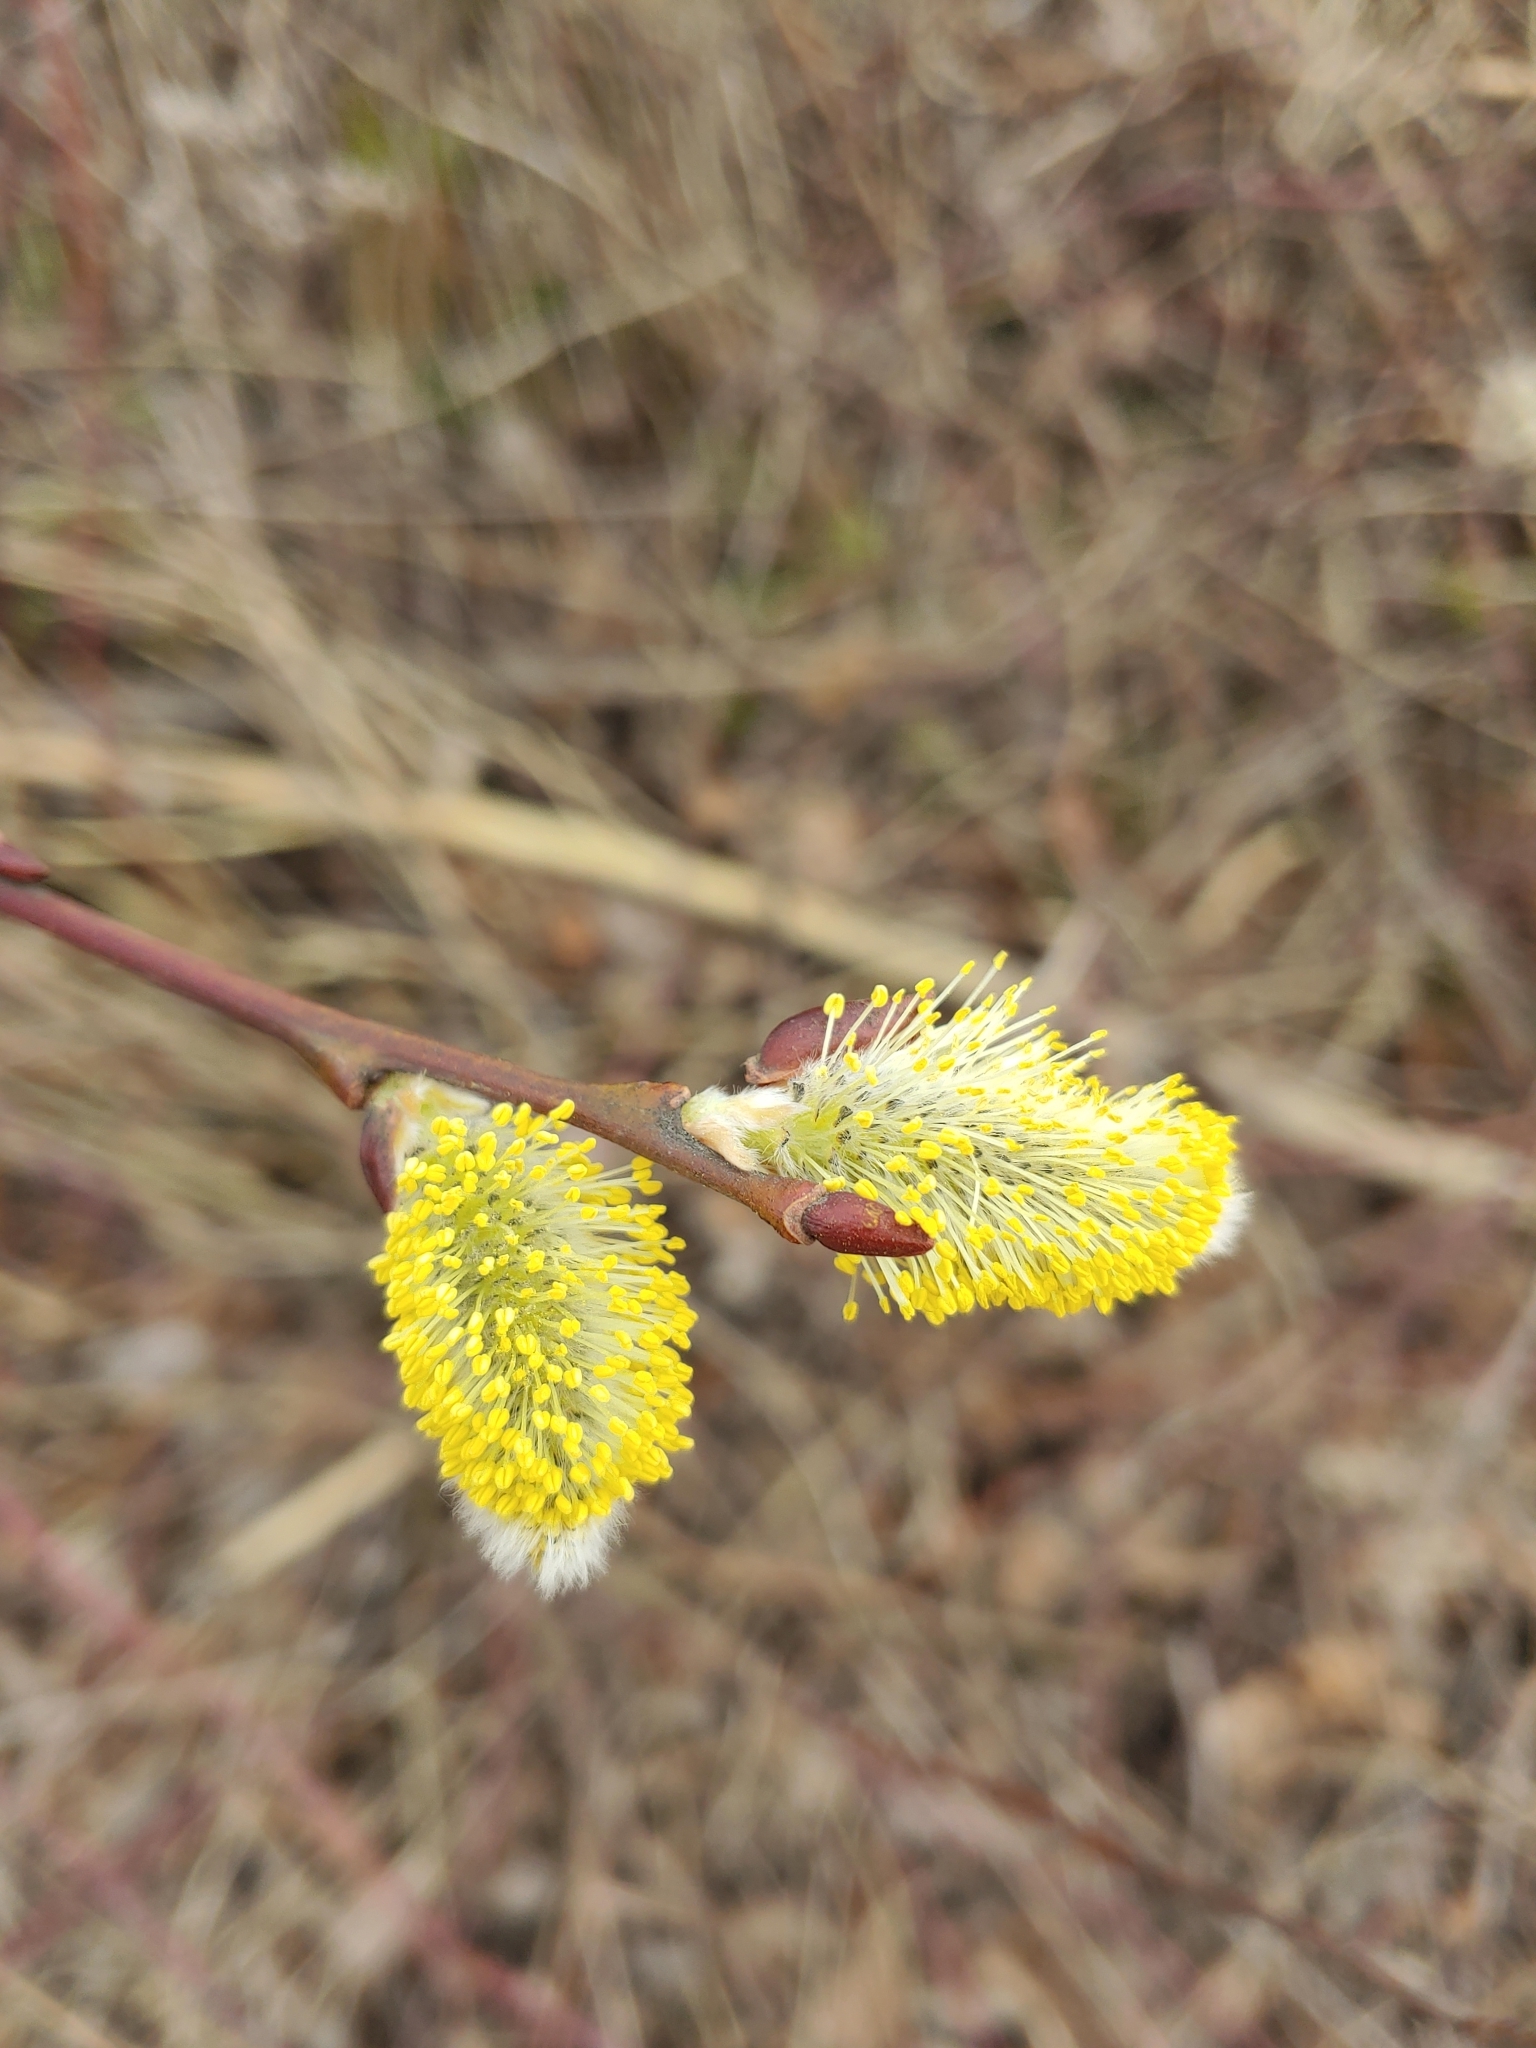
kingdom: Plantae
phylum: Tracheophyta
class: Magnoliopsida
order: Malpighiales
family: Salicaceae
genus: Salix
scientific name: Salix caprea
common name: Goat willow
